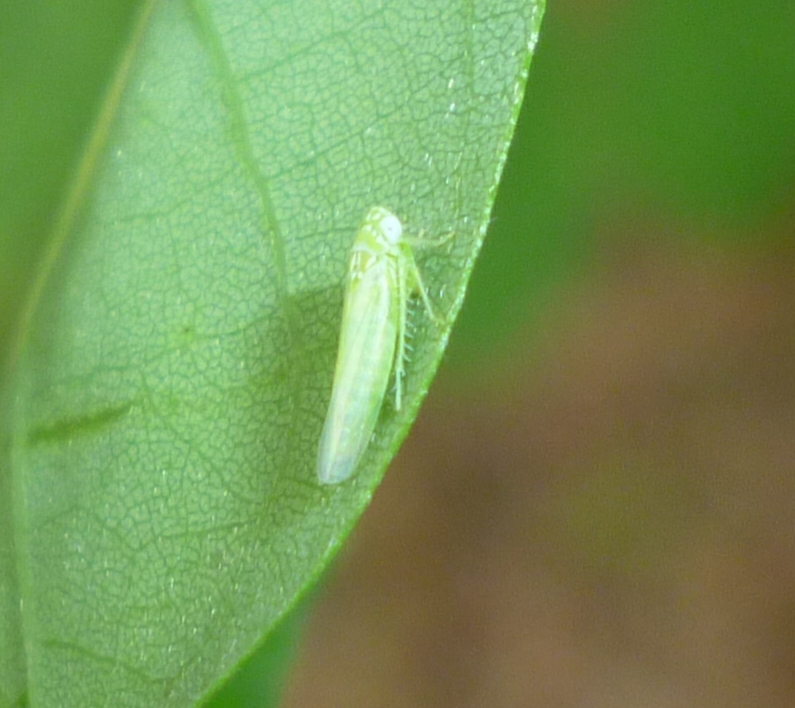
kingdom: Animalia
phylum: Arthropoda
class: Insecta
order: Hemiptera
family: Cicadellidae
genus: Empoasca
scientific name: Empoasca fabae
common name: Potato leafhopper
